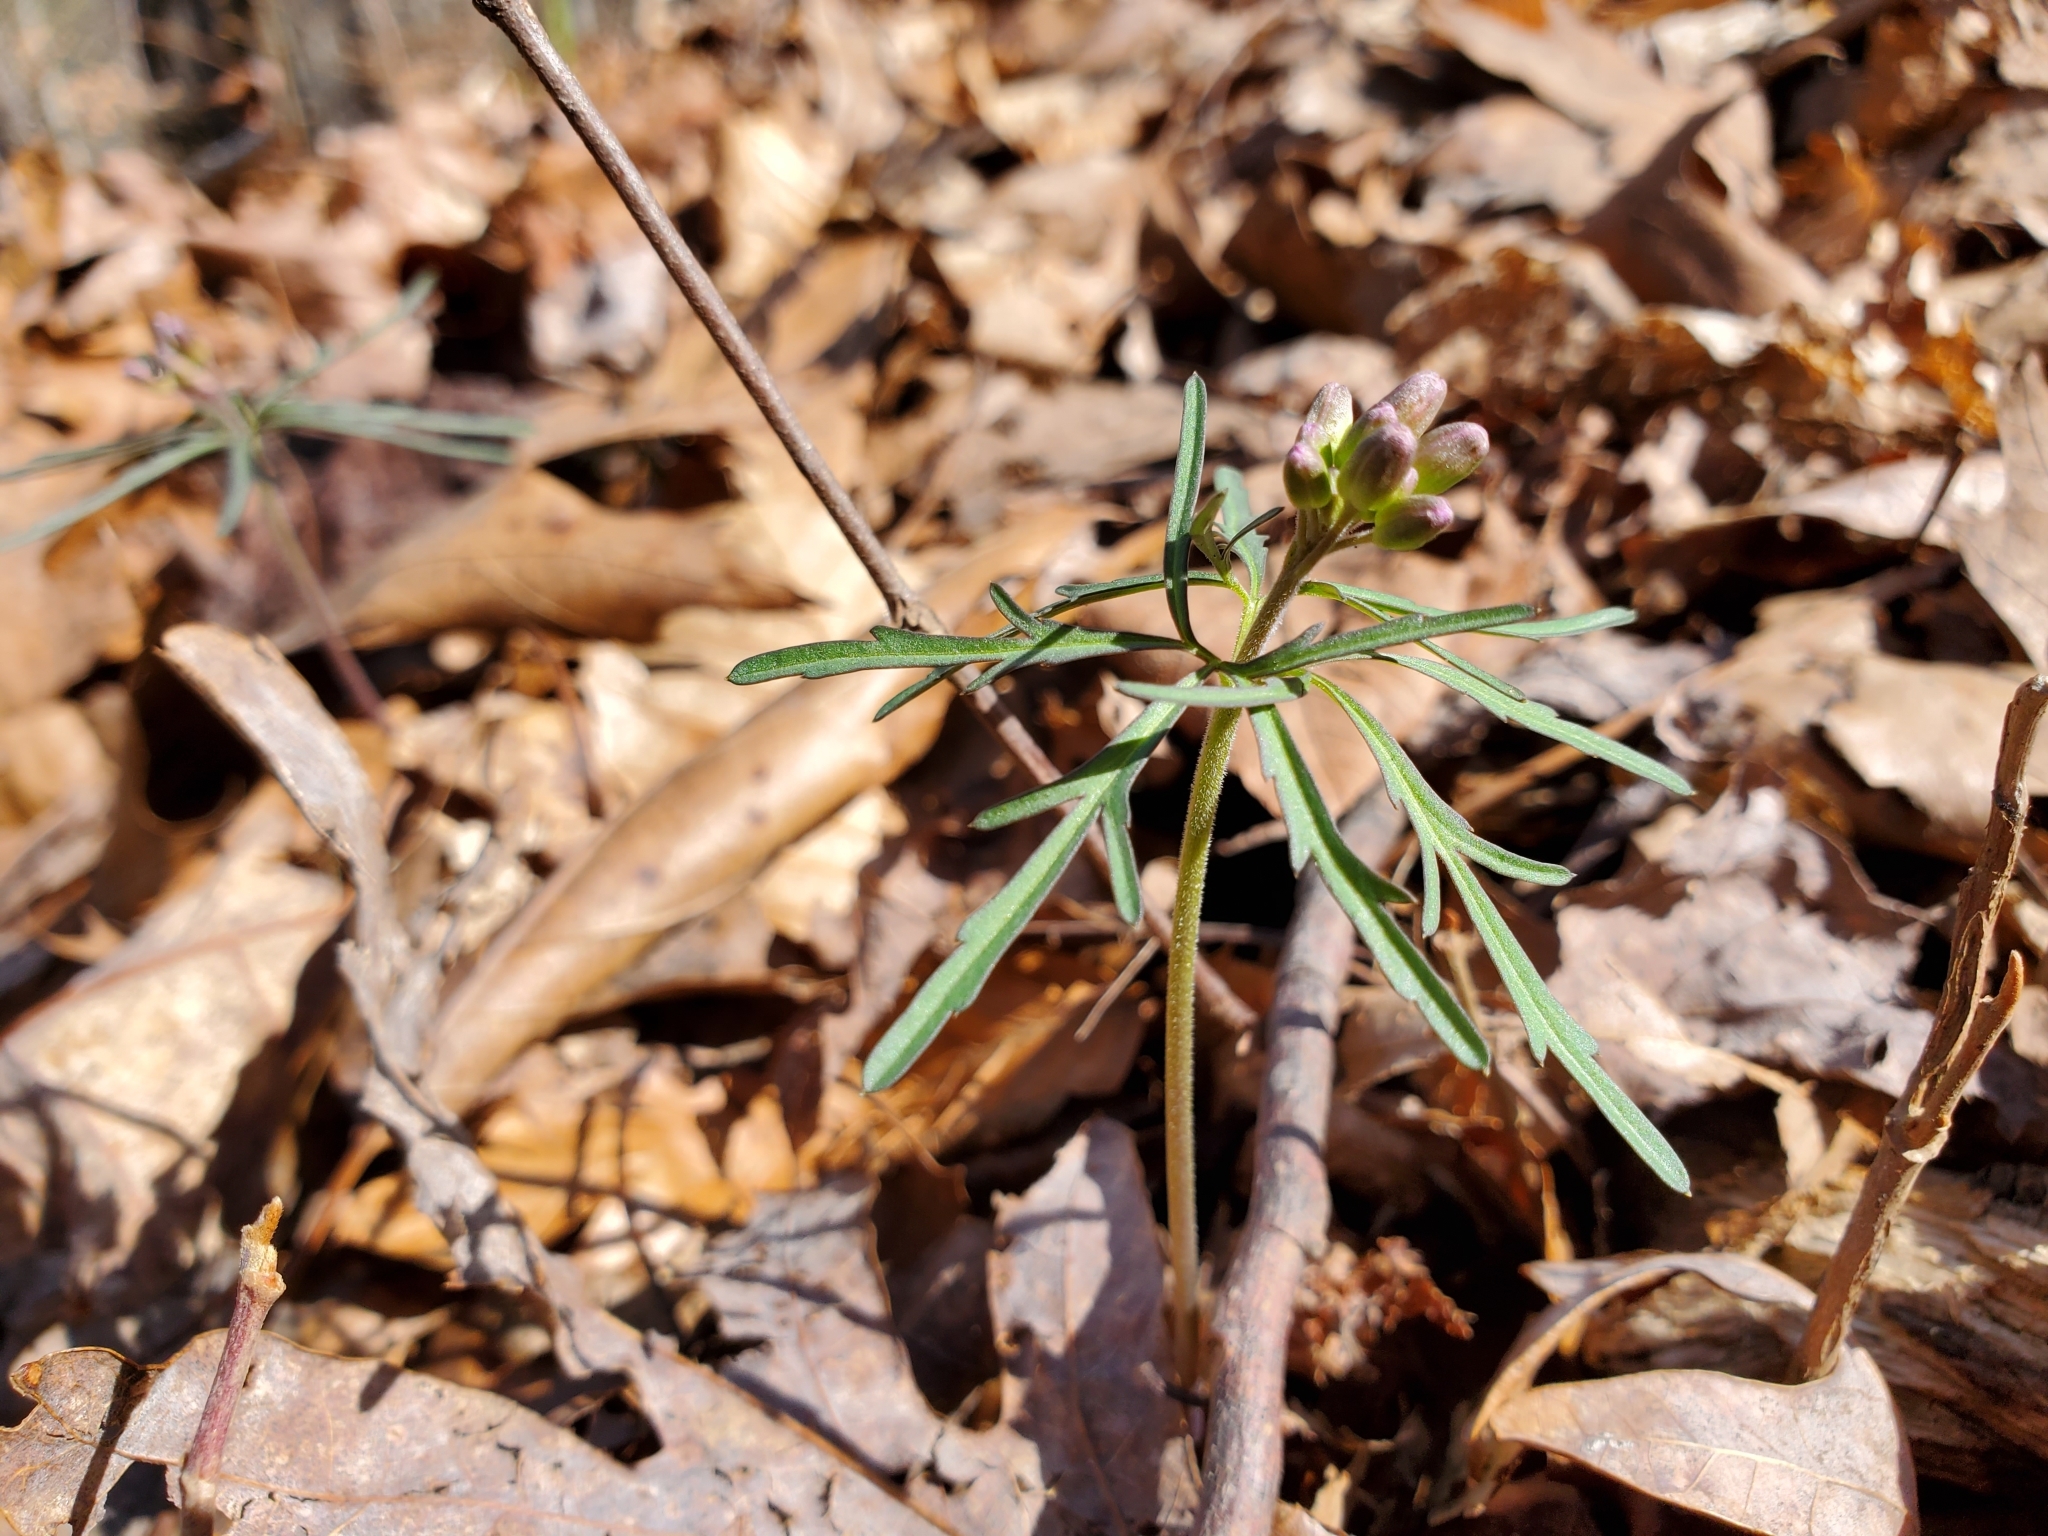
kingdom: Plantae
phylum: Tracheophyta
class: Magnoliopsida
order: Brassicales
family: Brassicaceae
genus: Cardamine
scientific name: Cardamine concatenata
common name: Cut-leaf toothcup
